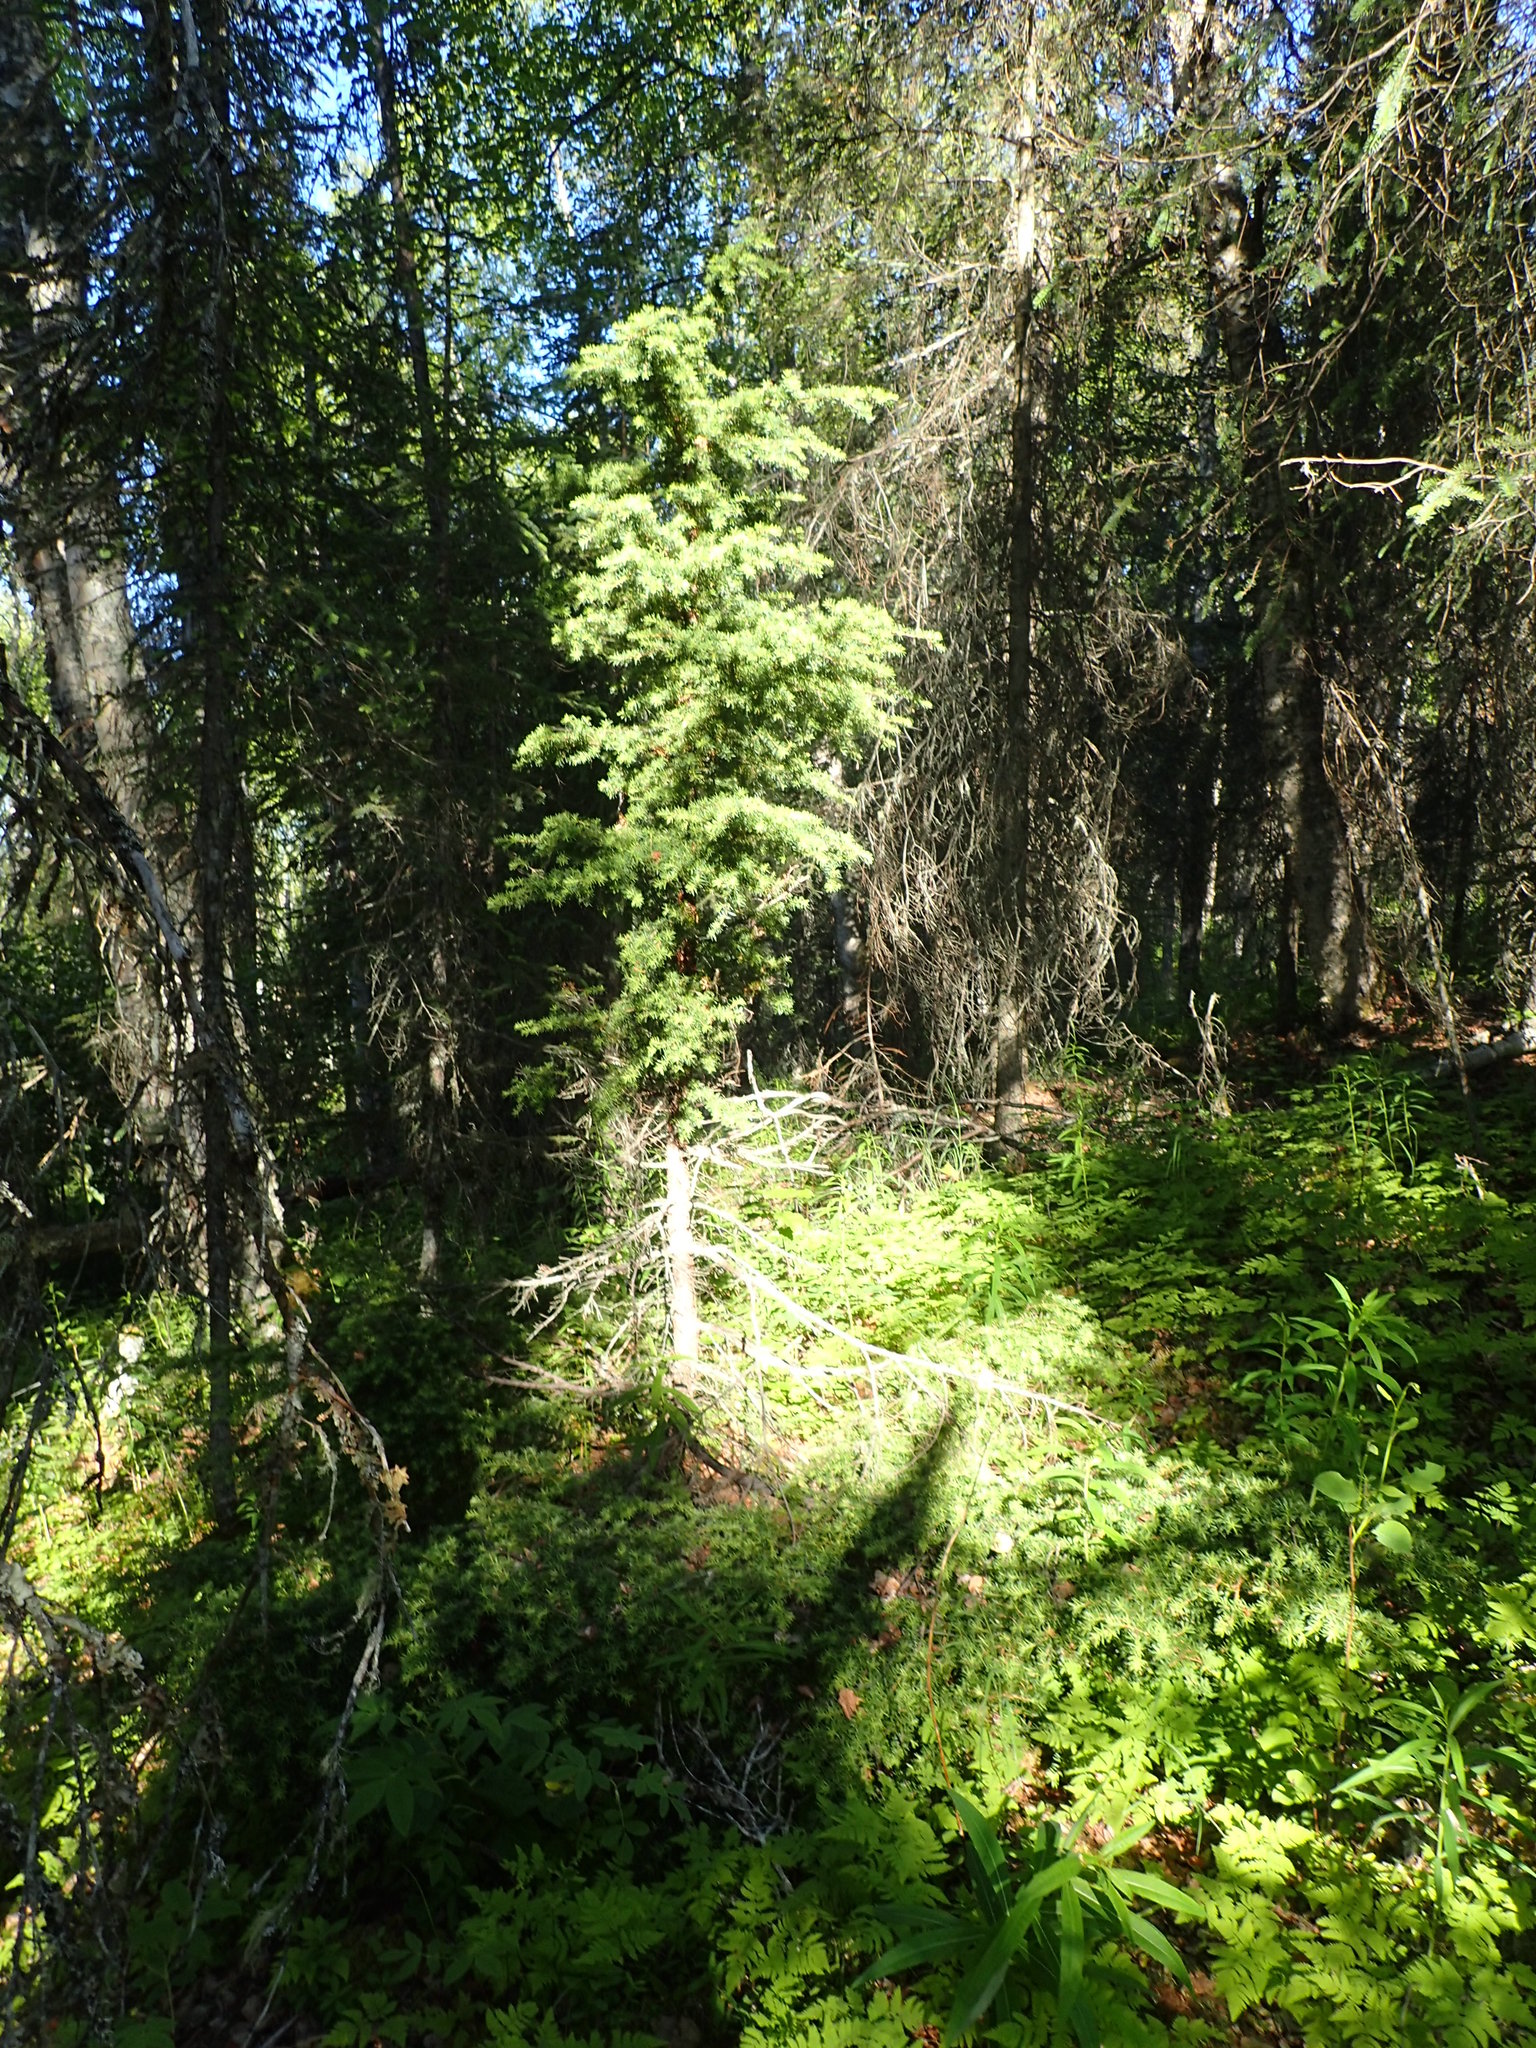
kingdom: Plantae
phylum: Tracheophyta
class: Pinopsida
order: Pinales
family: Pinaceae
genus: Tsuga
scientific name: Tsuga mertensiana
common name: Mountain hemlock
